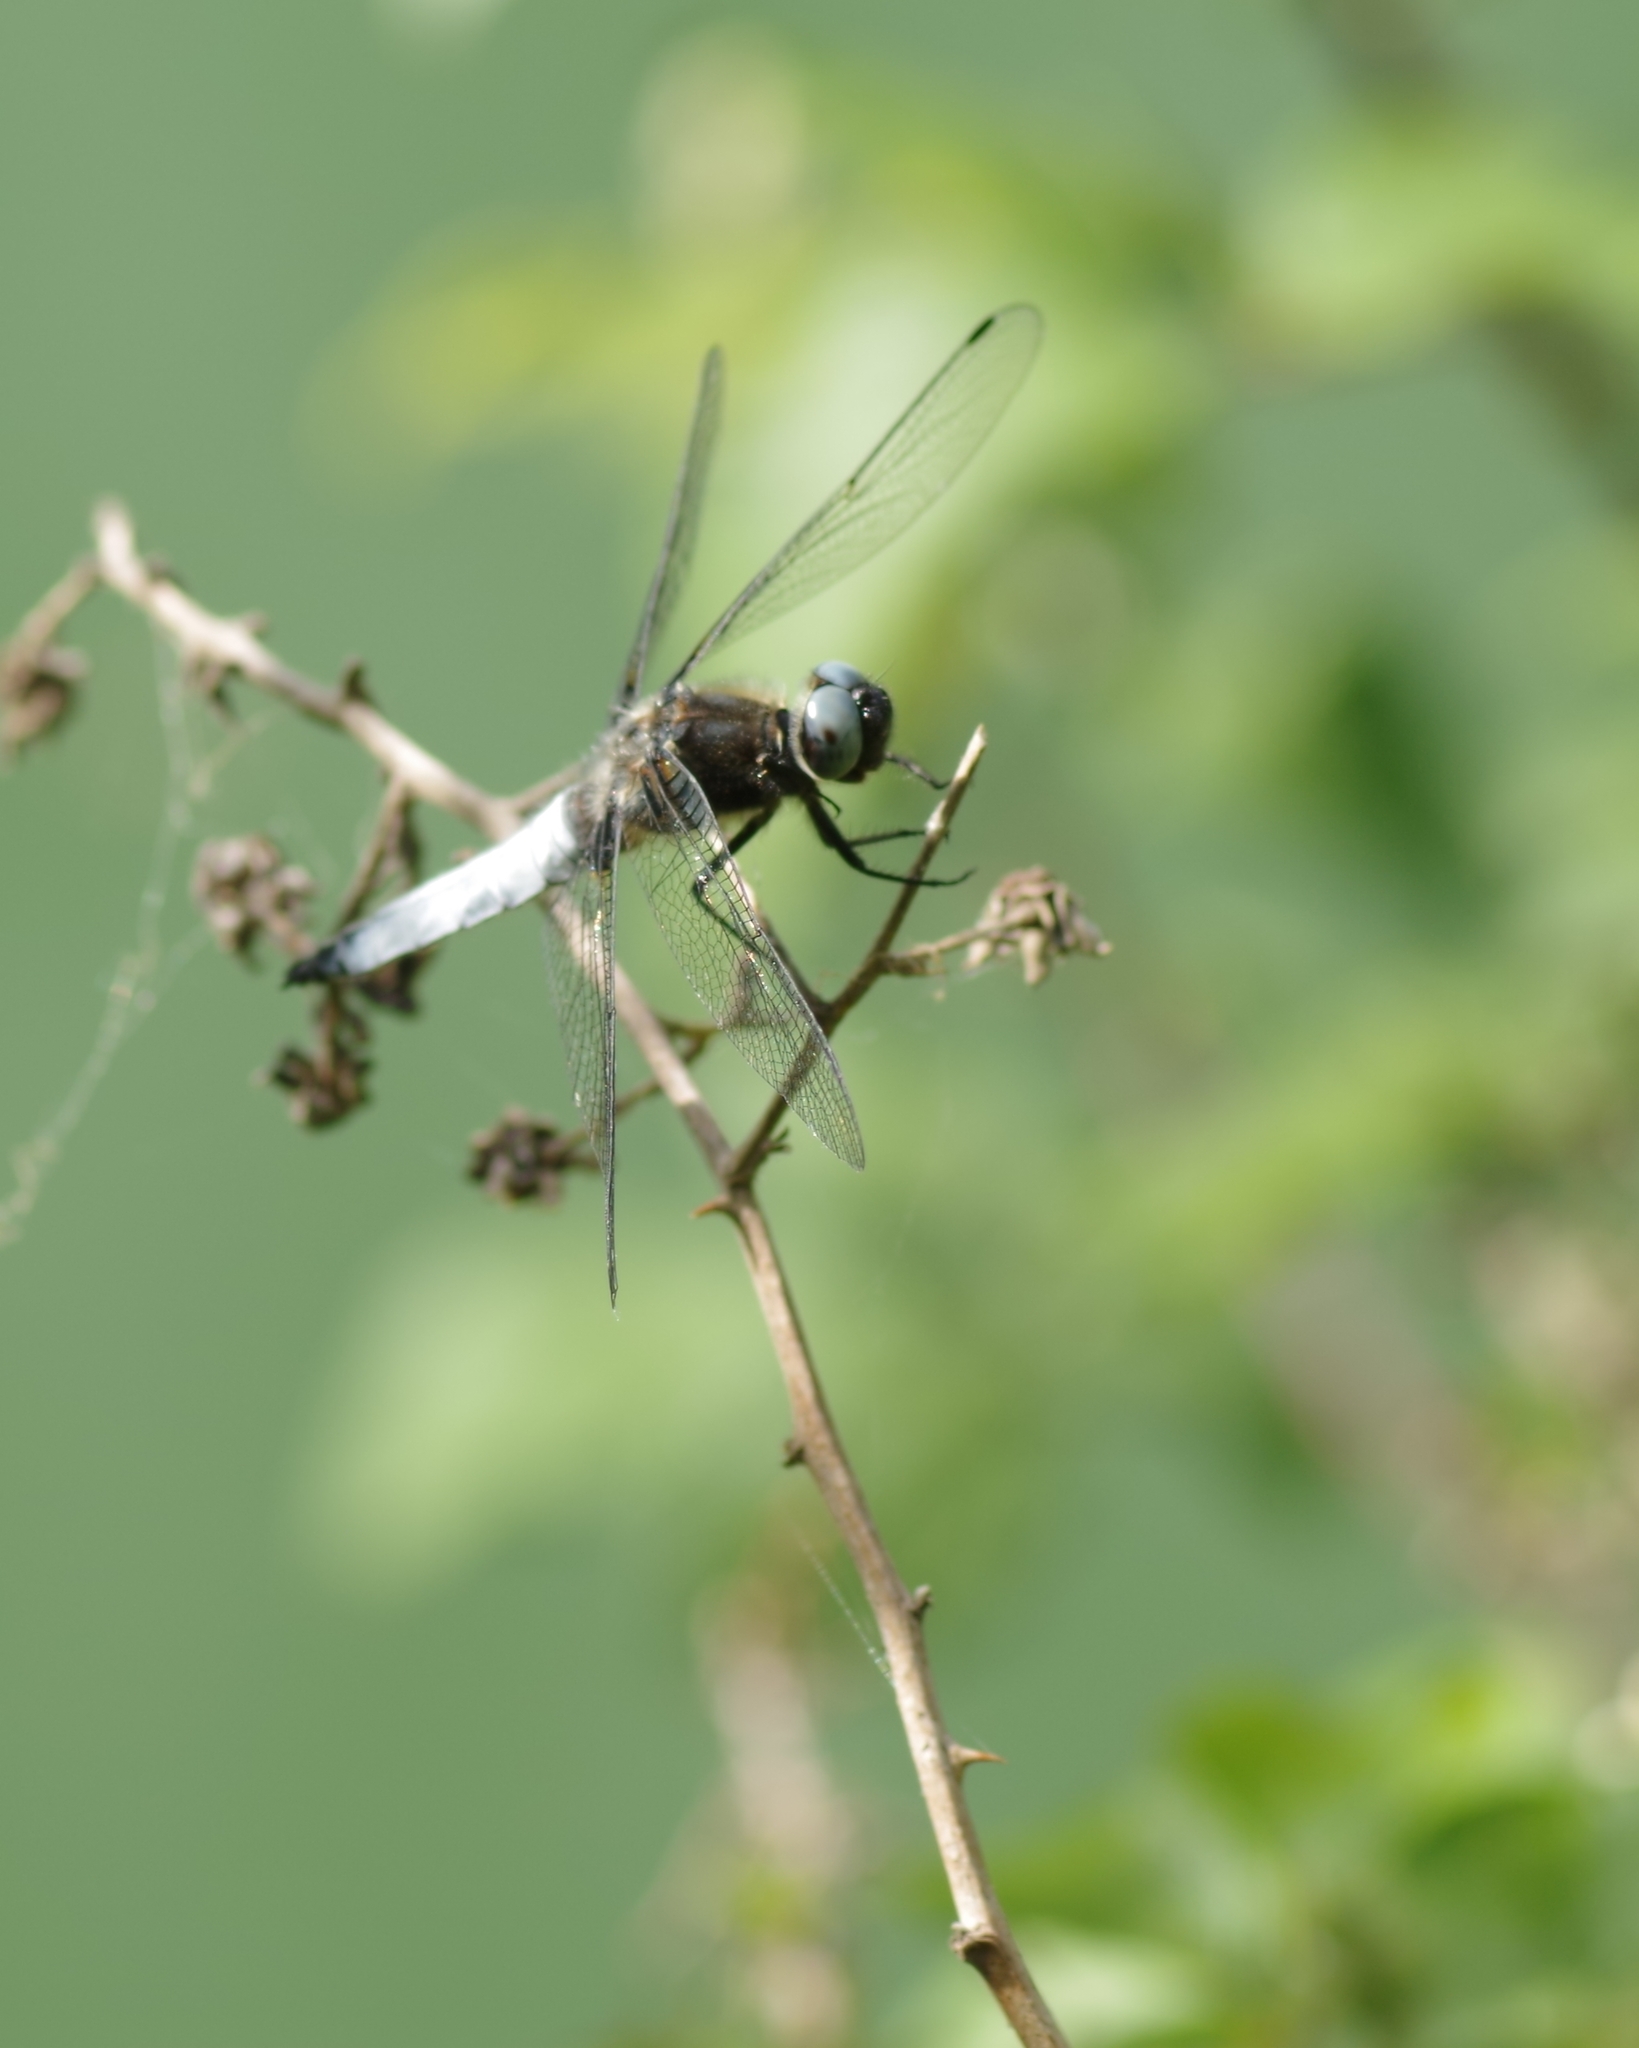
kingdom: Animalia
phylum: Arthropoda
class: Insecta
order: Odonata
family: Libellulidae
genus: Libellula
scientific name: Libellula fulva
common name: Blue chaser
